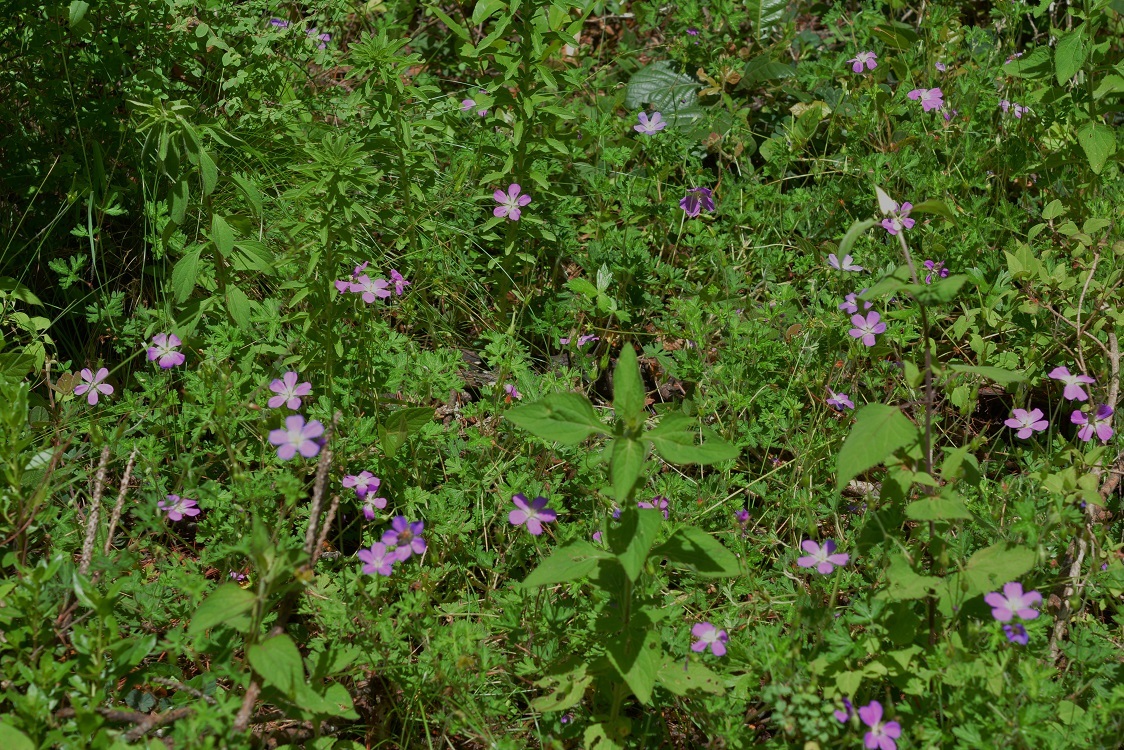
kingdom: Plantae
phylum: Tracheophyta
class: Magnoliopsida
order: Geraniales
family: Geraniaceae
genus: Geranium
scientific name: Geranium goldmanii
